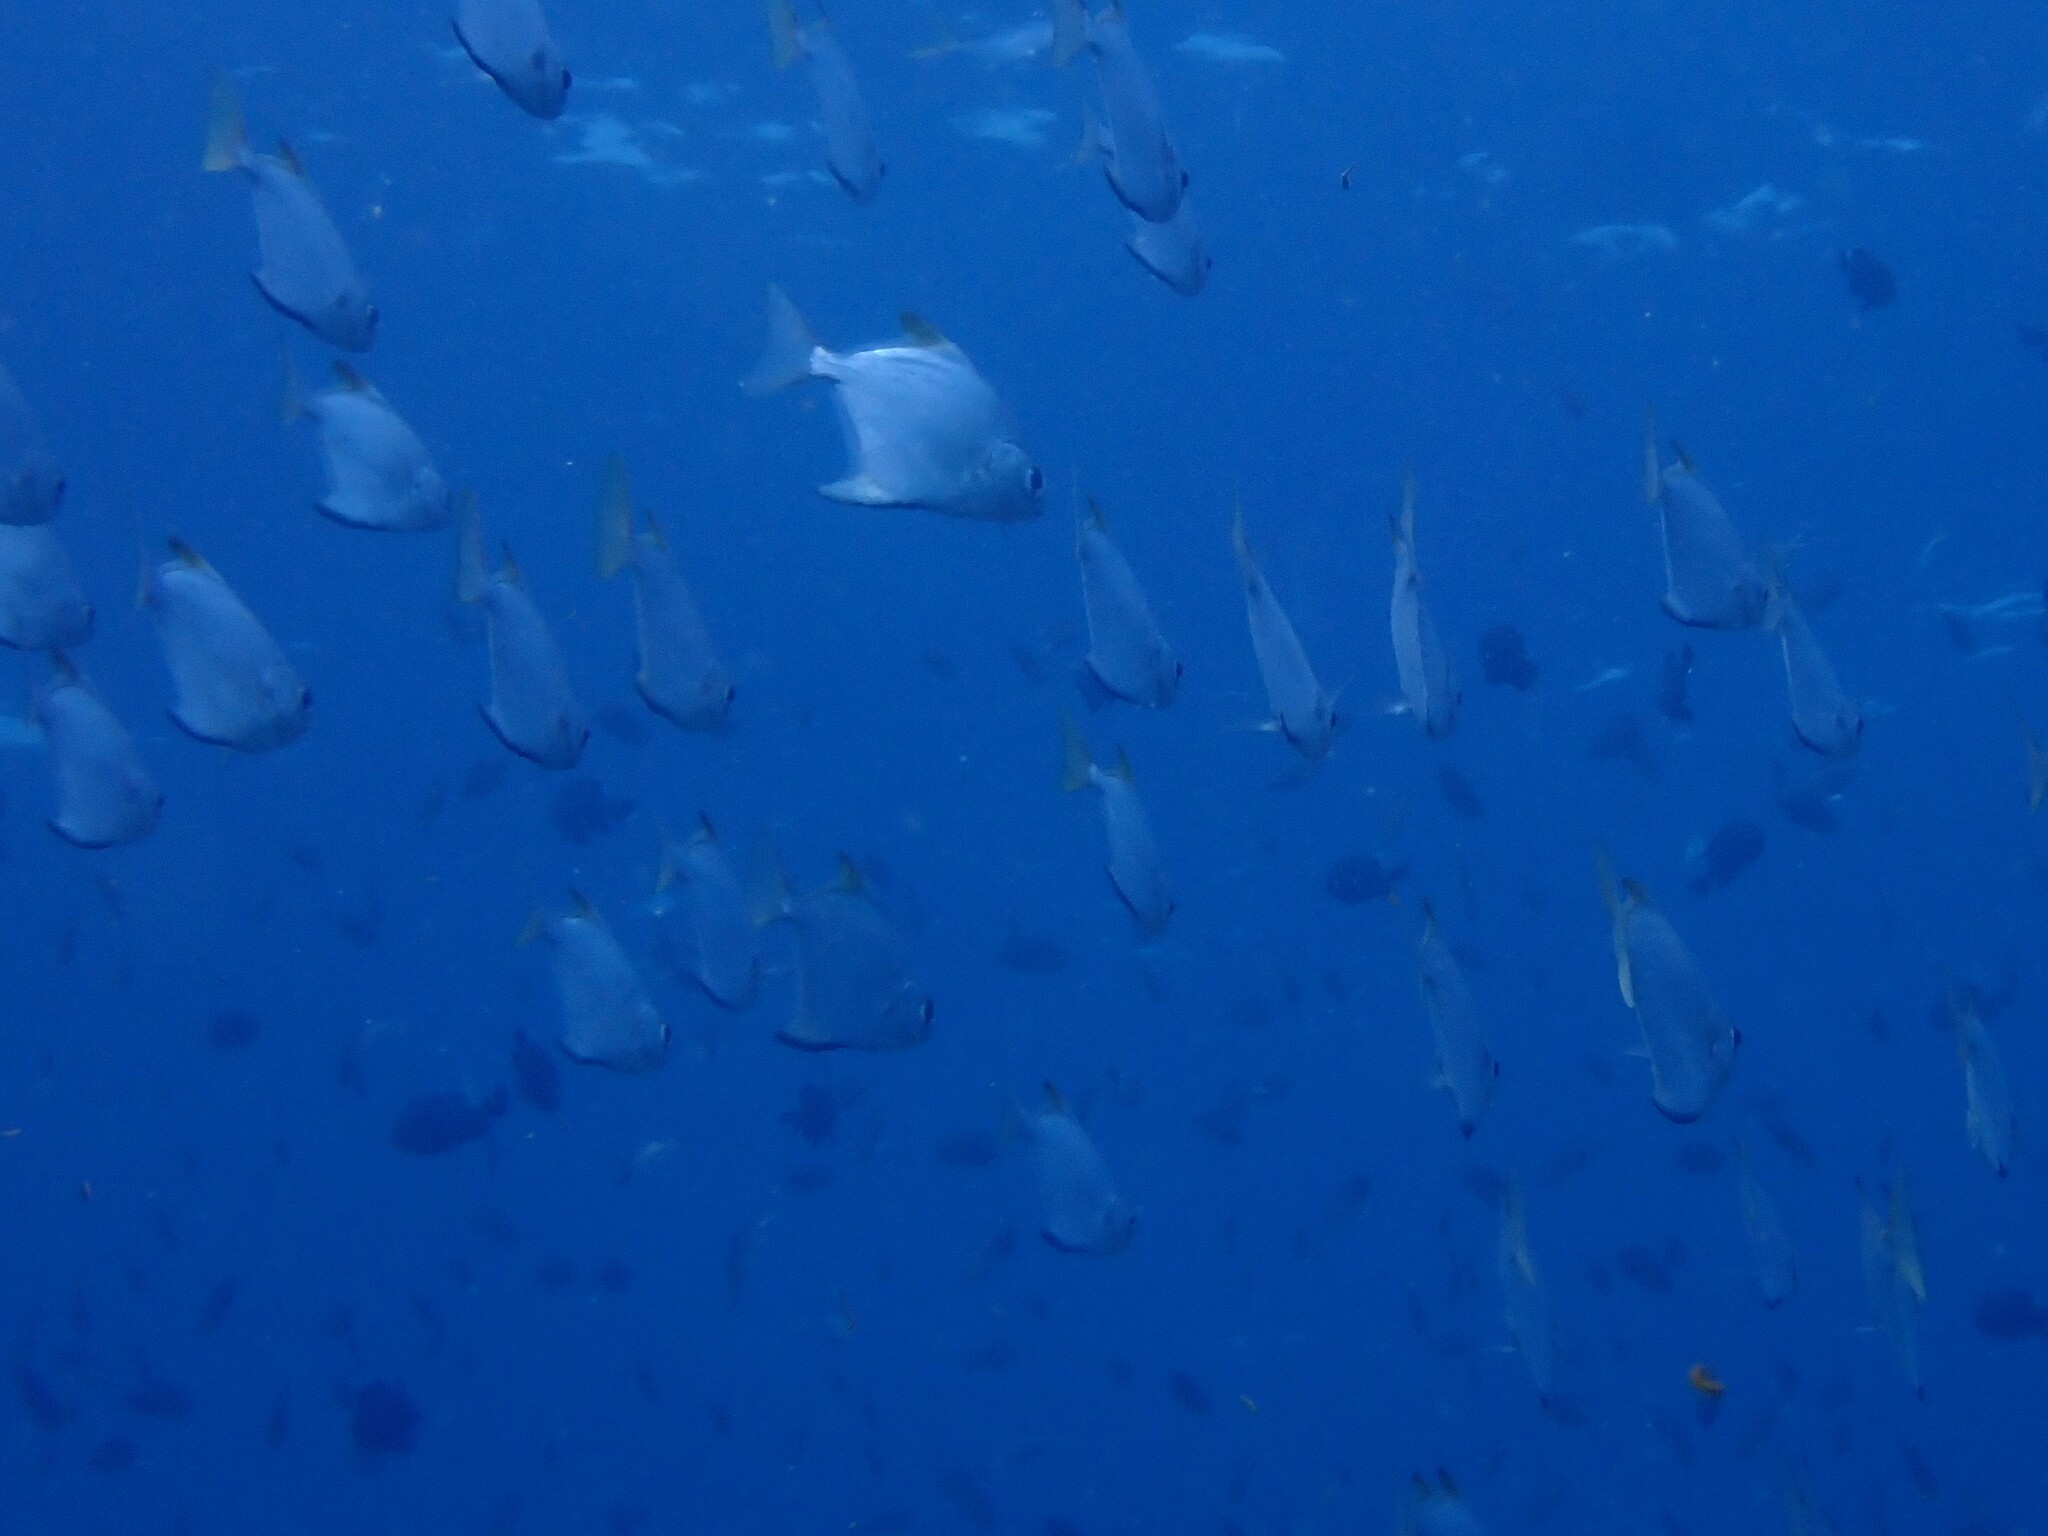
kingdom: Animalia
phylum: Chordata
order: Perciformes
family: Monodactylidae
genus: Monodactylus
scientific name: Monodactylus argenteus
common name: Silver moony
